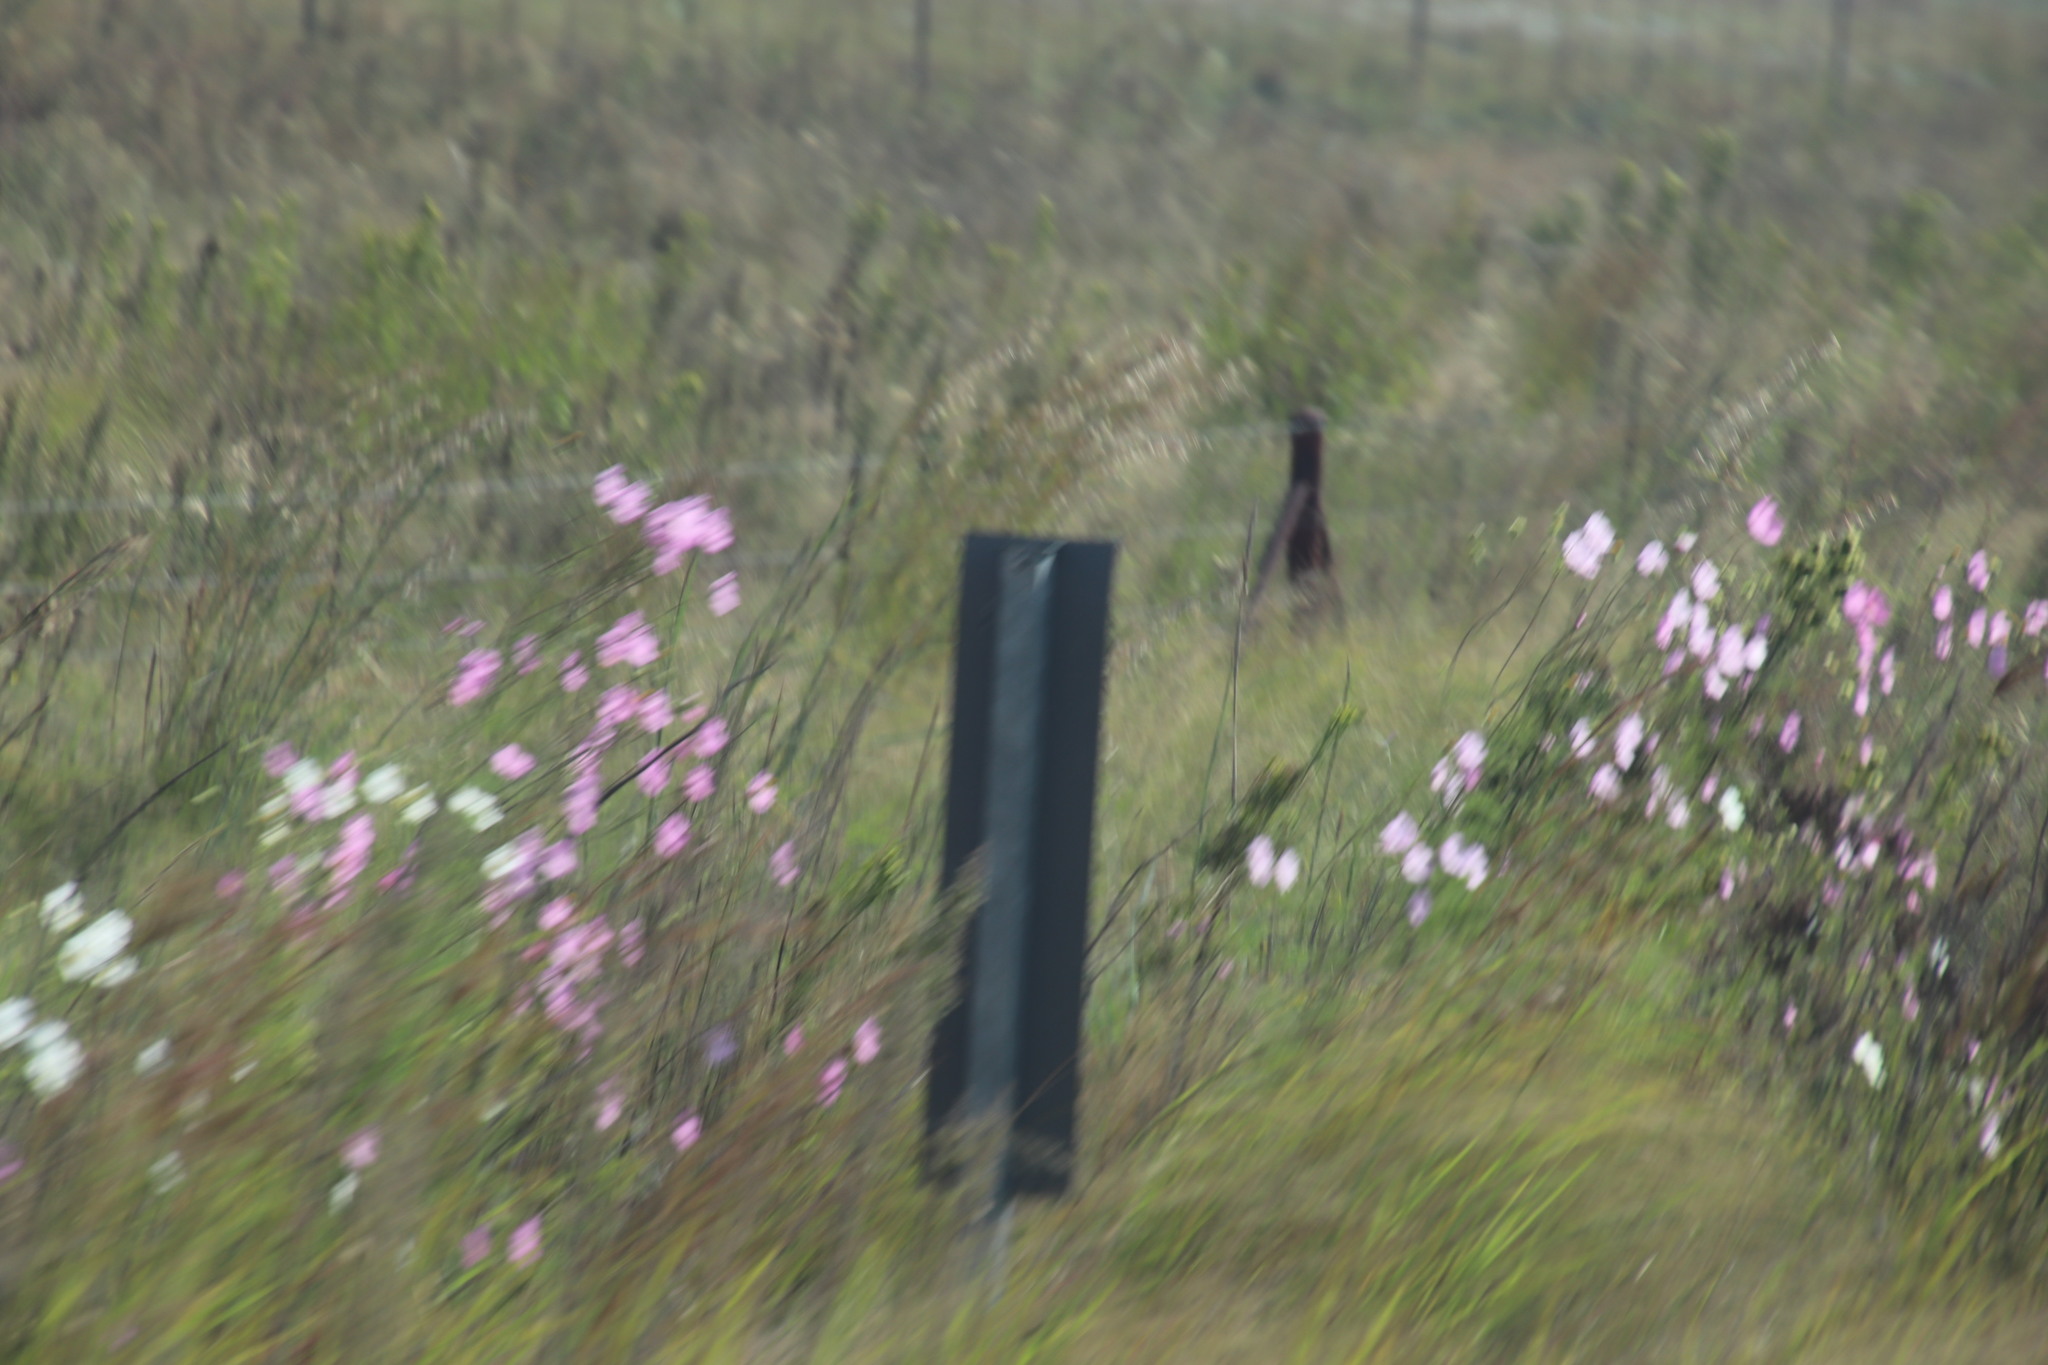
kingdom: Plantae
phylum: Tracheophyta
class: Magnoliopsida
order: Asterales
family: Asteraceae
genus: Cosmos
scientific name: Cosmos bipinnatus
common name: Garden cosmos
